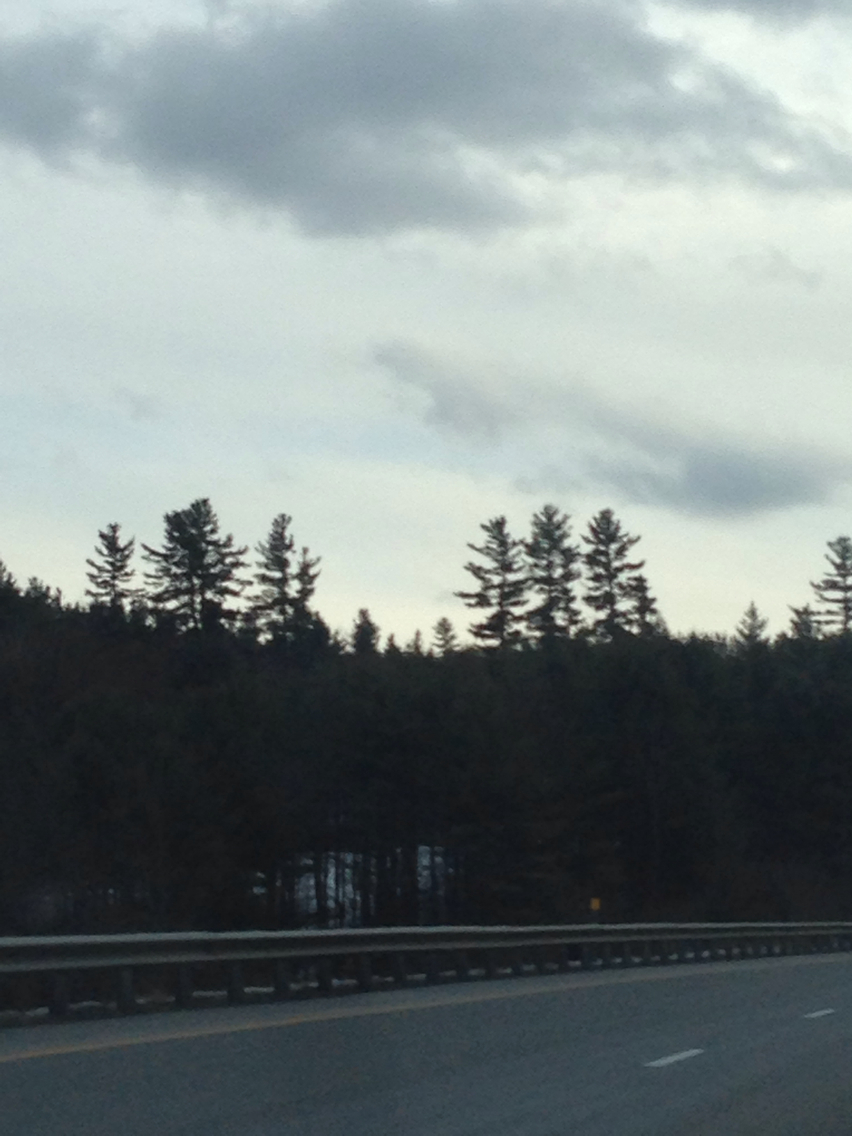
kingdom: Plantae
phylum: Tracheophyta
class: Pinopsida
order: Pinales
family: Pinaceae
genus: Pinus
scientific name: Pinus strobus
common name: Weymouth pine
